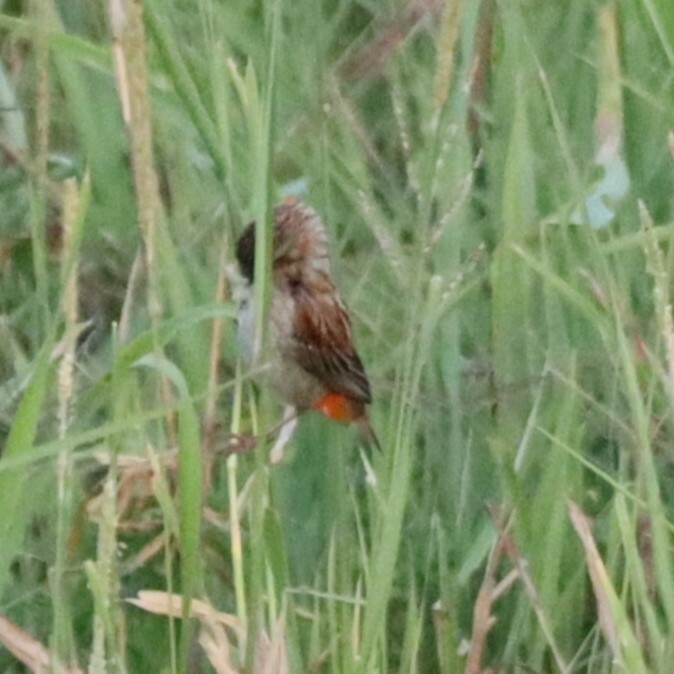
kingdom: Animalia
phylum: Chordata
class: Aves
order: Passeriformes
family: Ploceidae
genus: Euplectes
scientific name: Euplectes orix
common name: Southern red bishop
